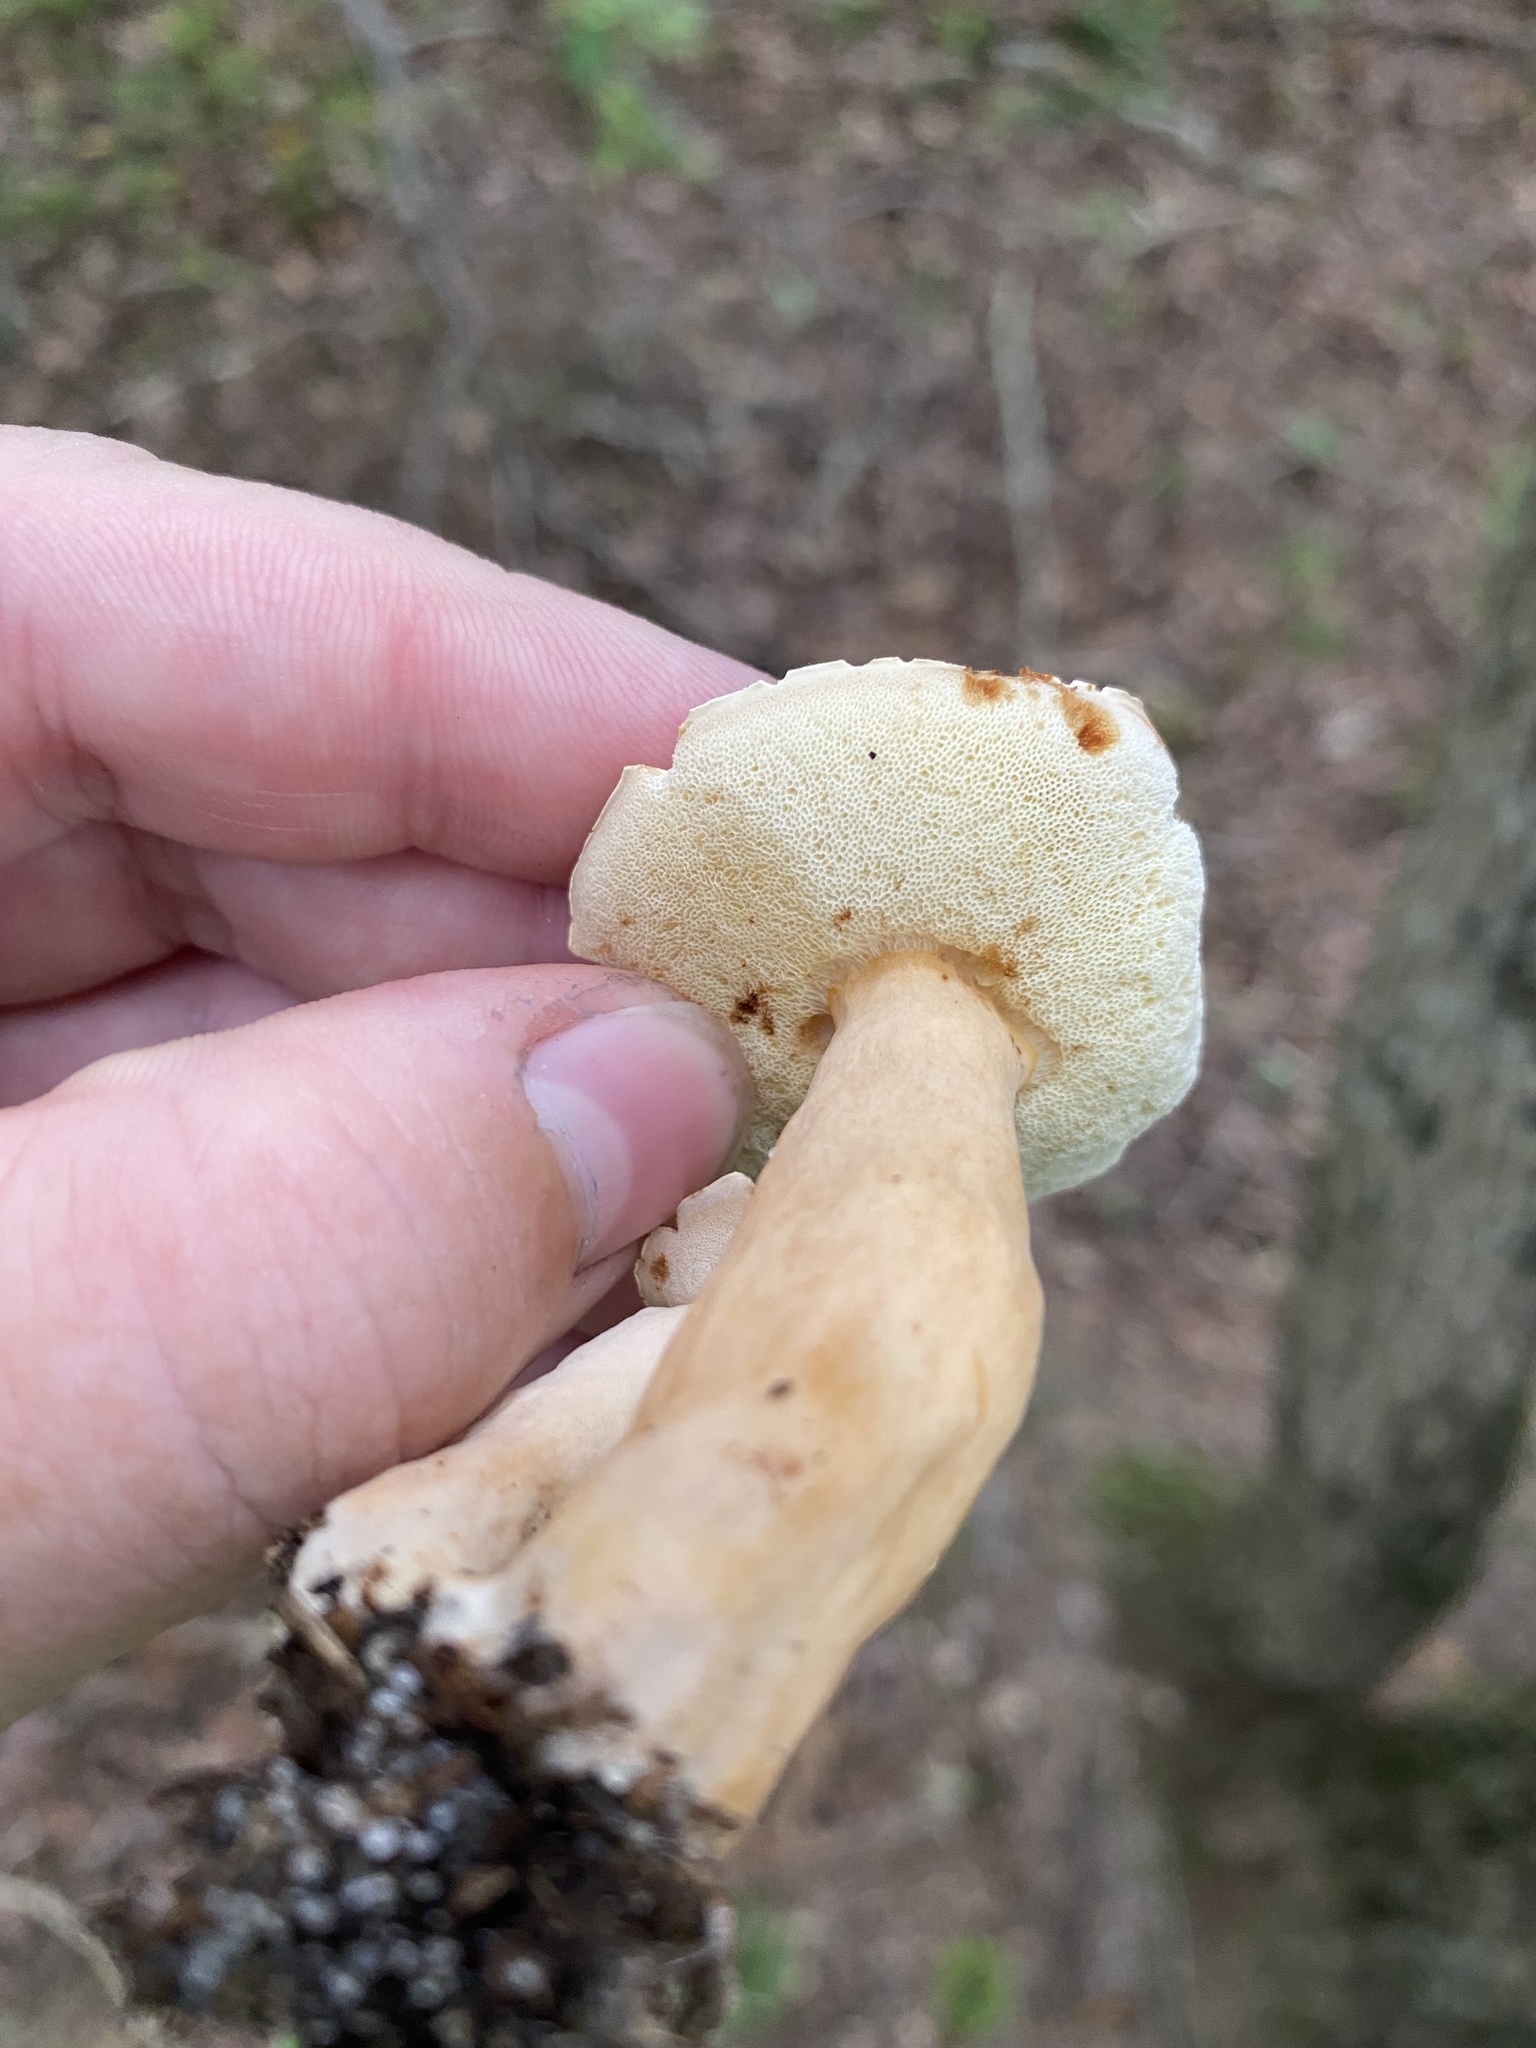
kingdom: Fungi
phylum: Basidiomycota
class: Agaricomycetes
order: Boletales
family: Gyroporaceae
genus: Gyroporus
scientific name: Gyroporus castaneus
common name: Chestnut bolete
